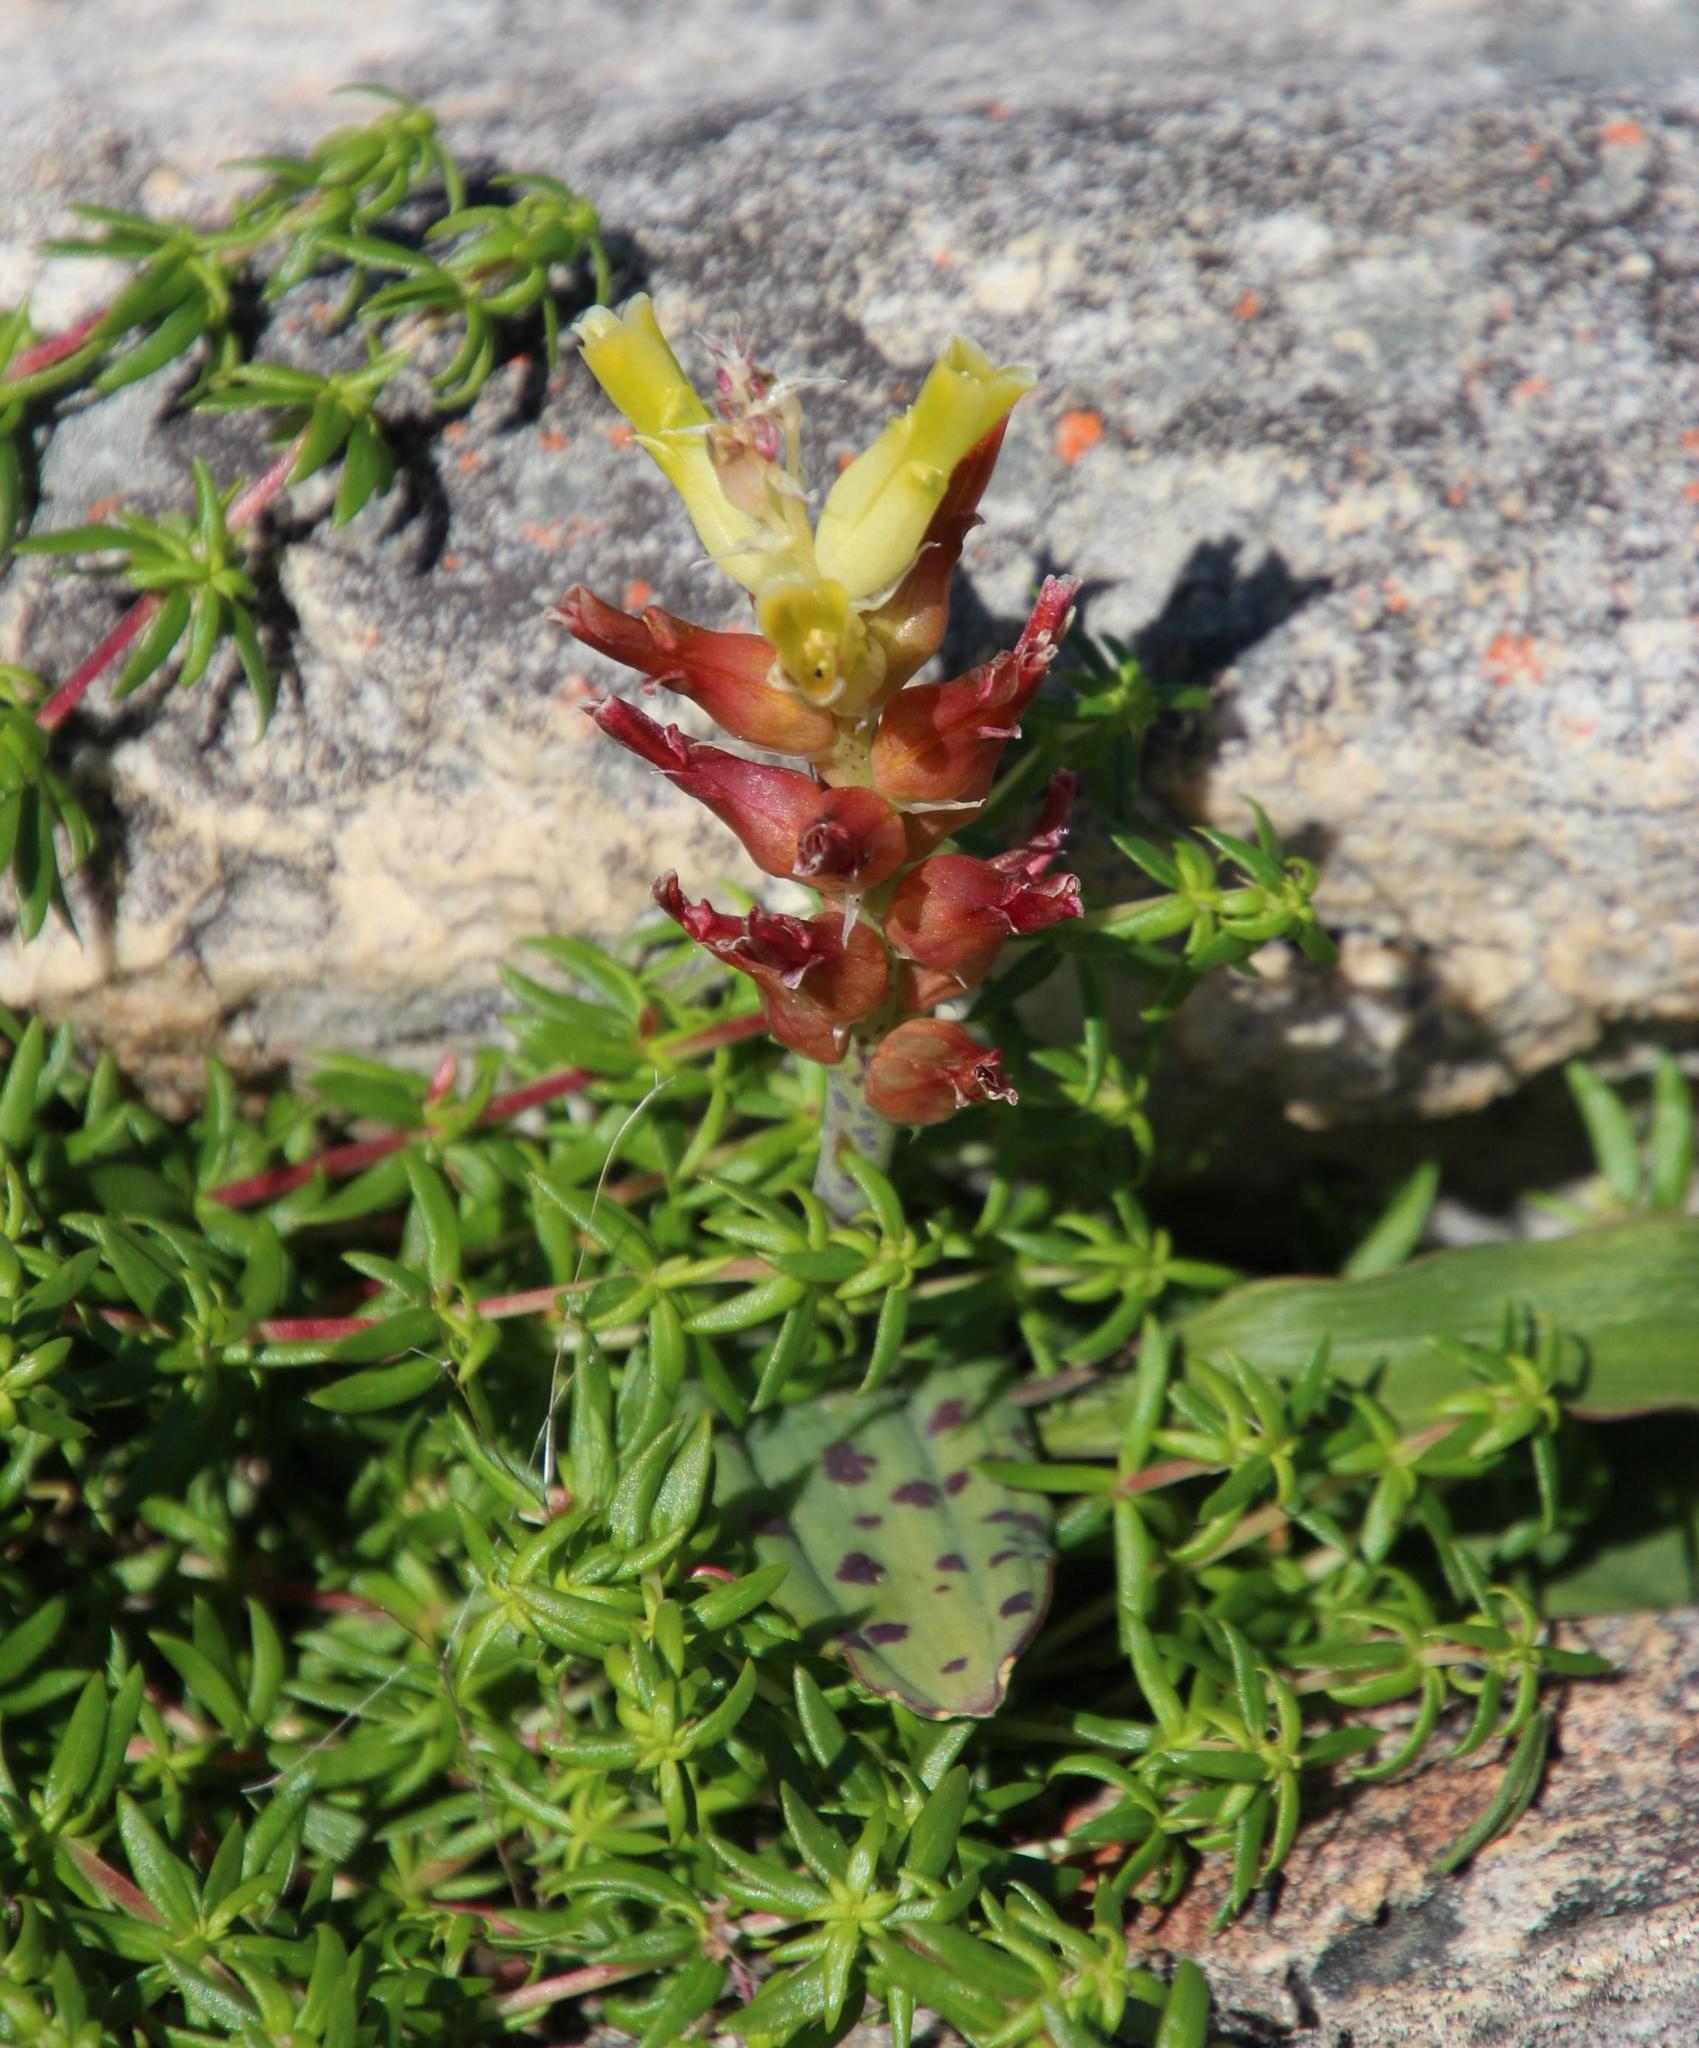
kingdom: Plantae
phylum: Tracheophyta
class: Liliopsida
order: Asparagales
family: Asparagaceae
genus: Lachenalia
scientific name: Lachenalia orchioides
